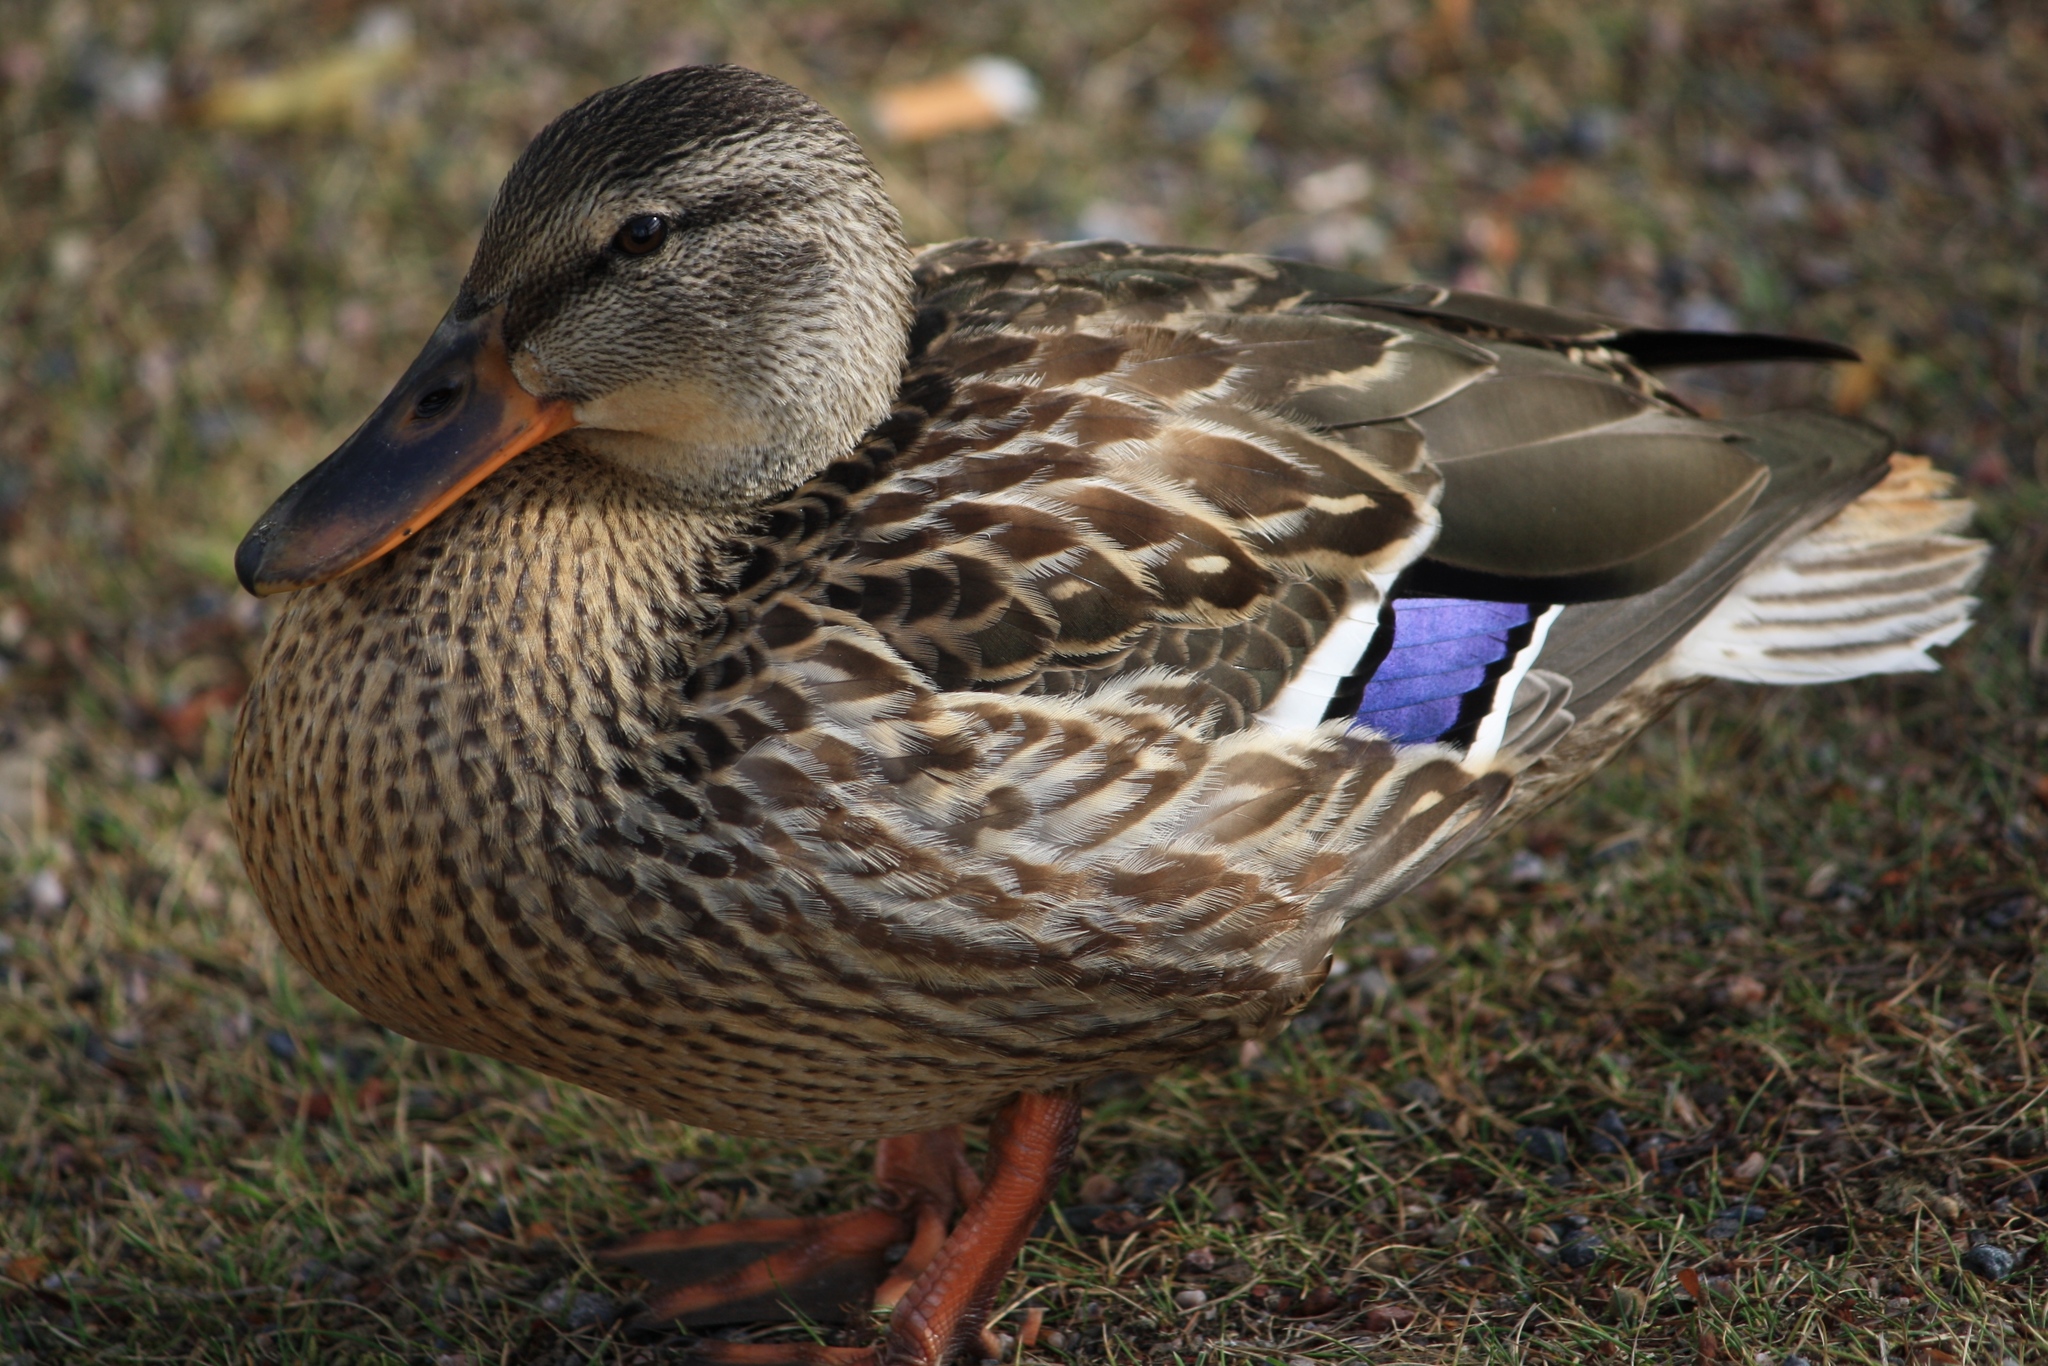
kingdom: Animalia
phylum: Chordata
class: Aves
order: Anseriformes
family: Anatidae
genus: Anas
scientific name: Anas platyrhynchos
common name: Mallard
